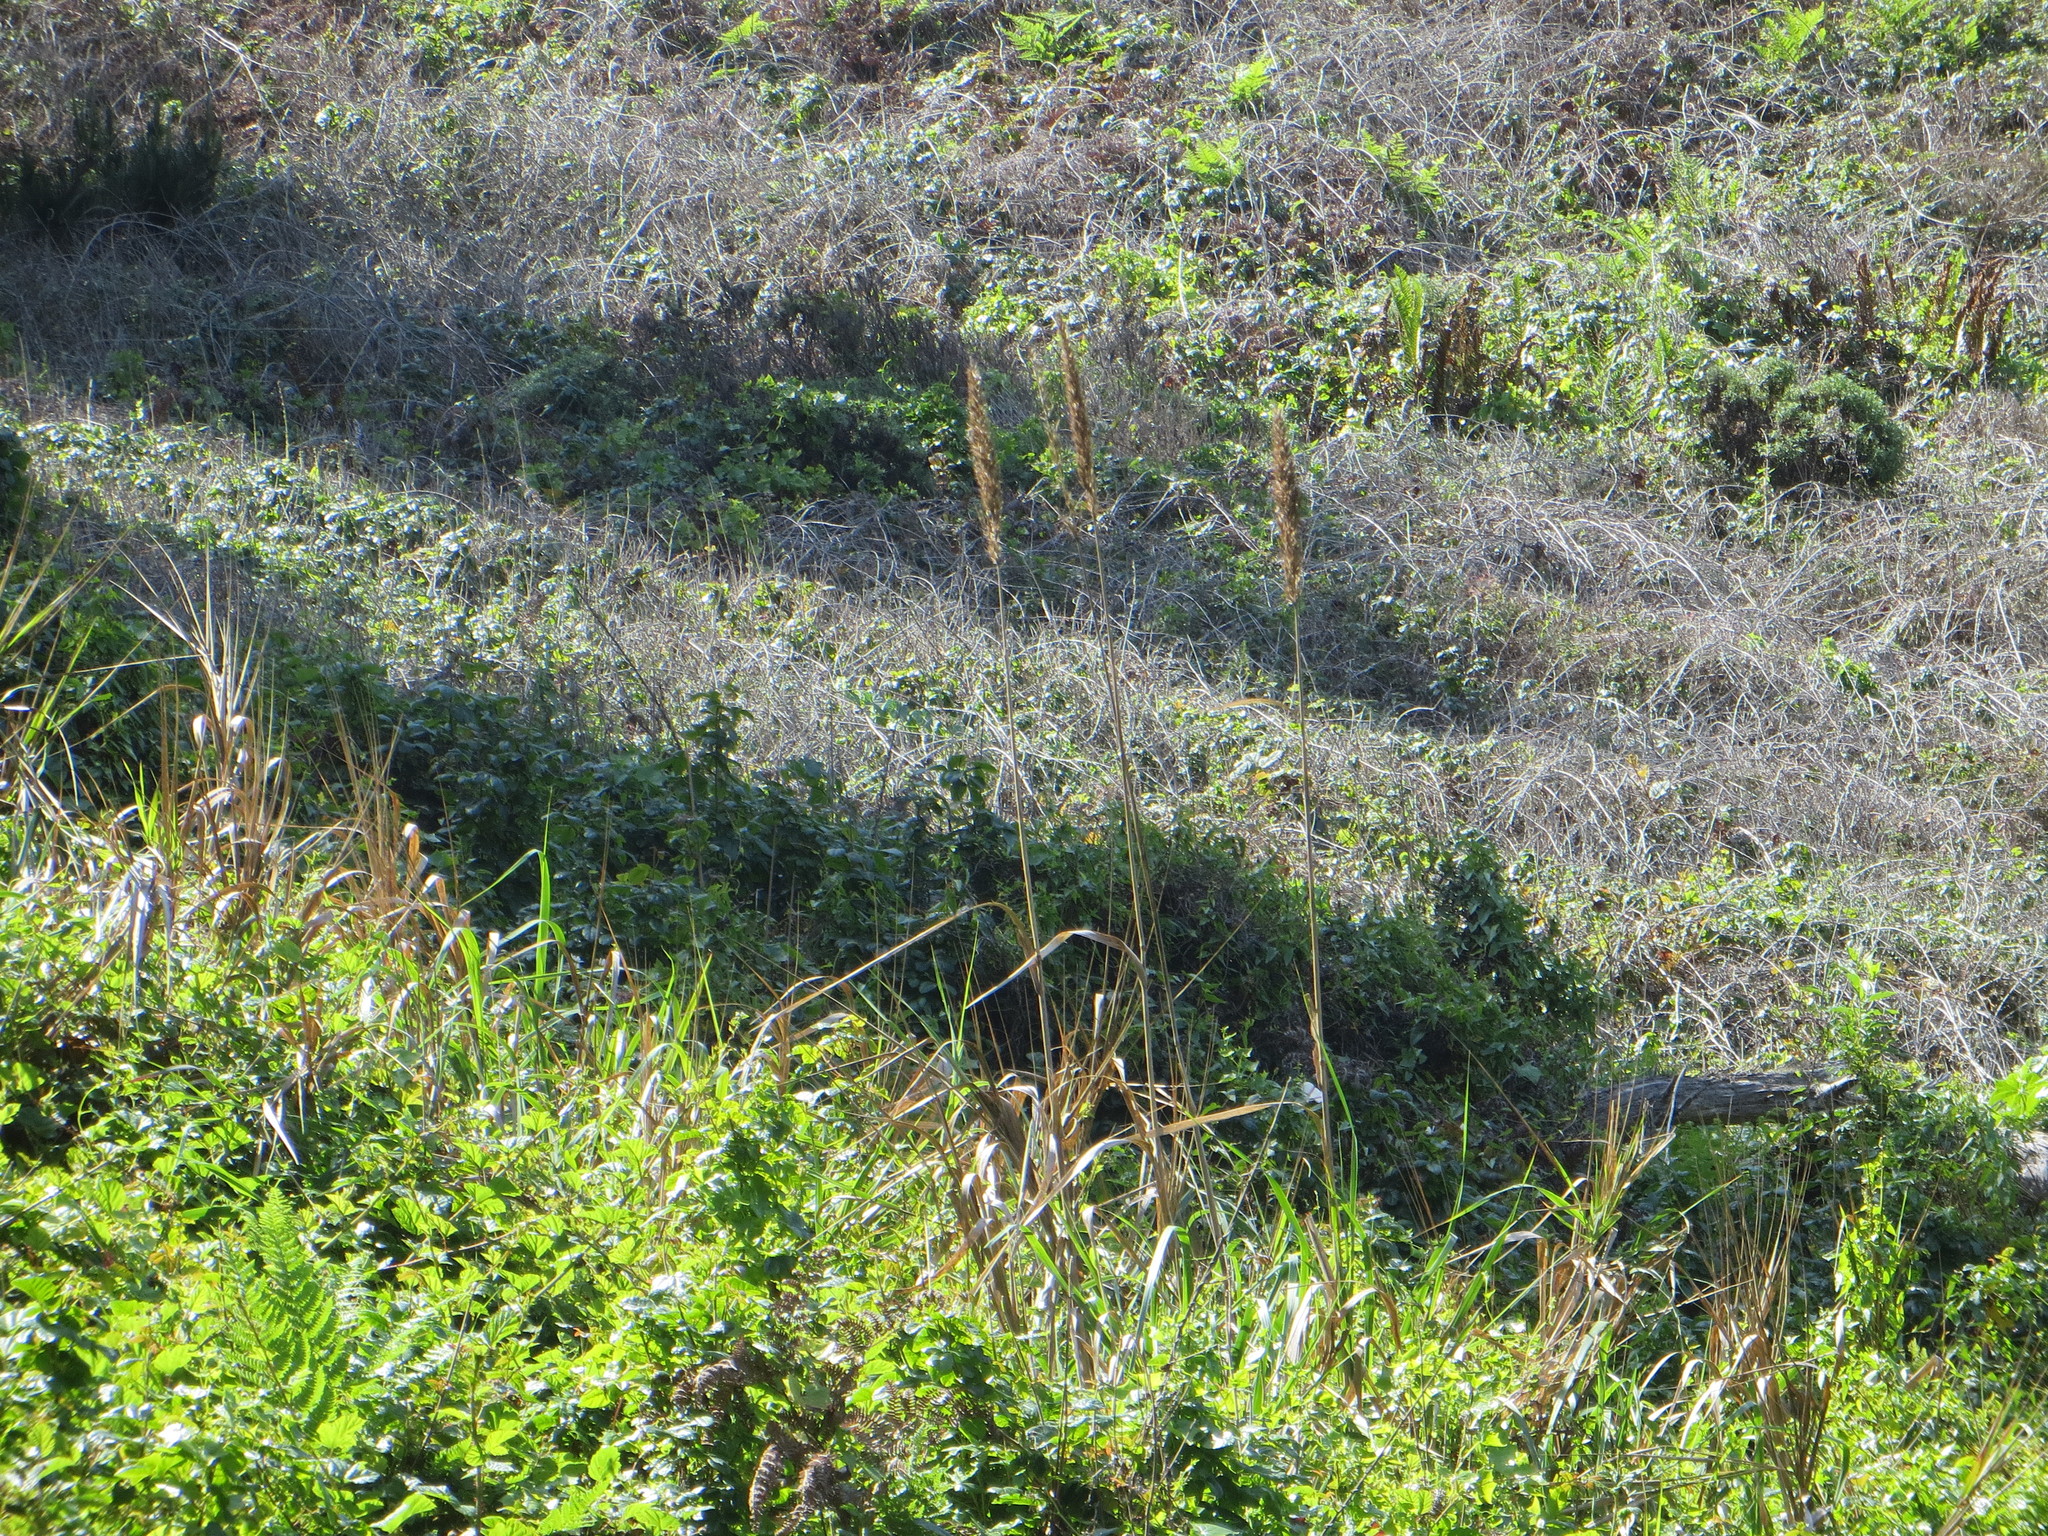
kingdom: Plantae
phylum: Tracheophyta
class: Liliopsida
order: Poales
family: Poaceae
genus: Leymus
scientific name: Leymus condensatus
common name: Giant wild rye
